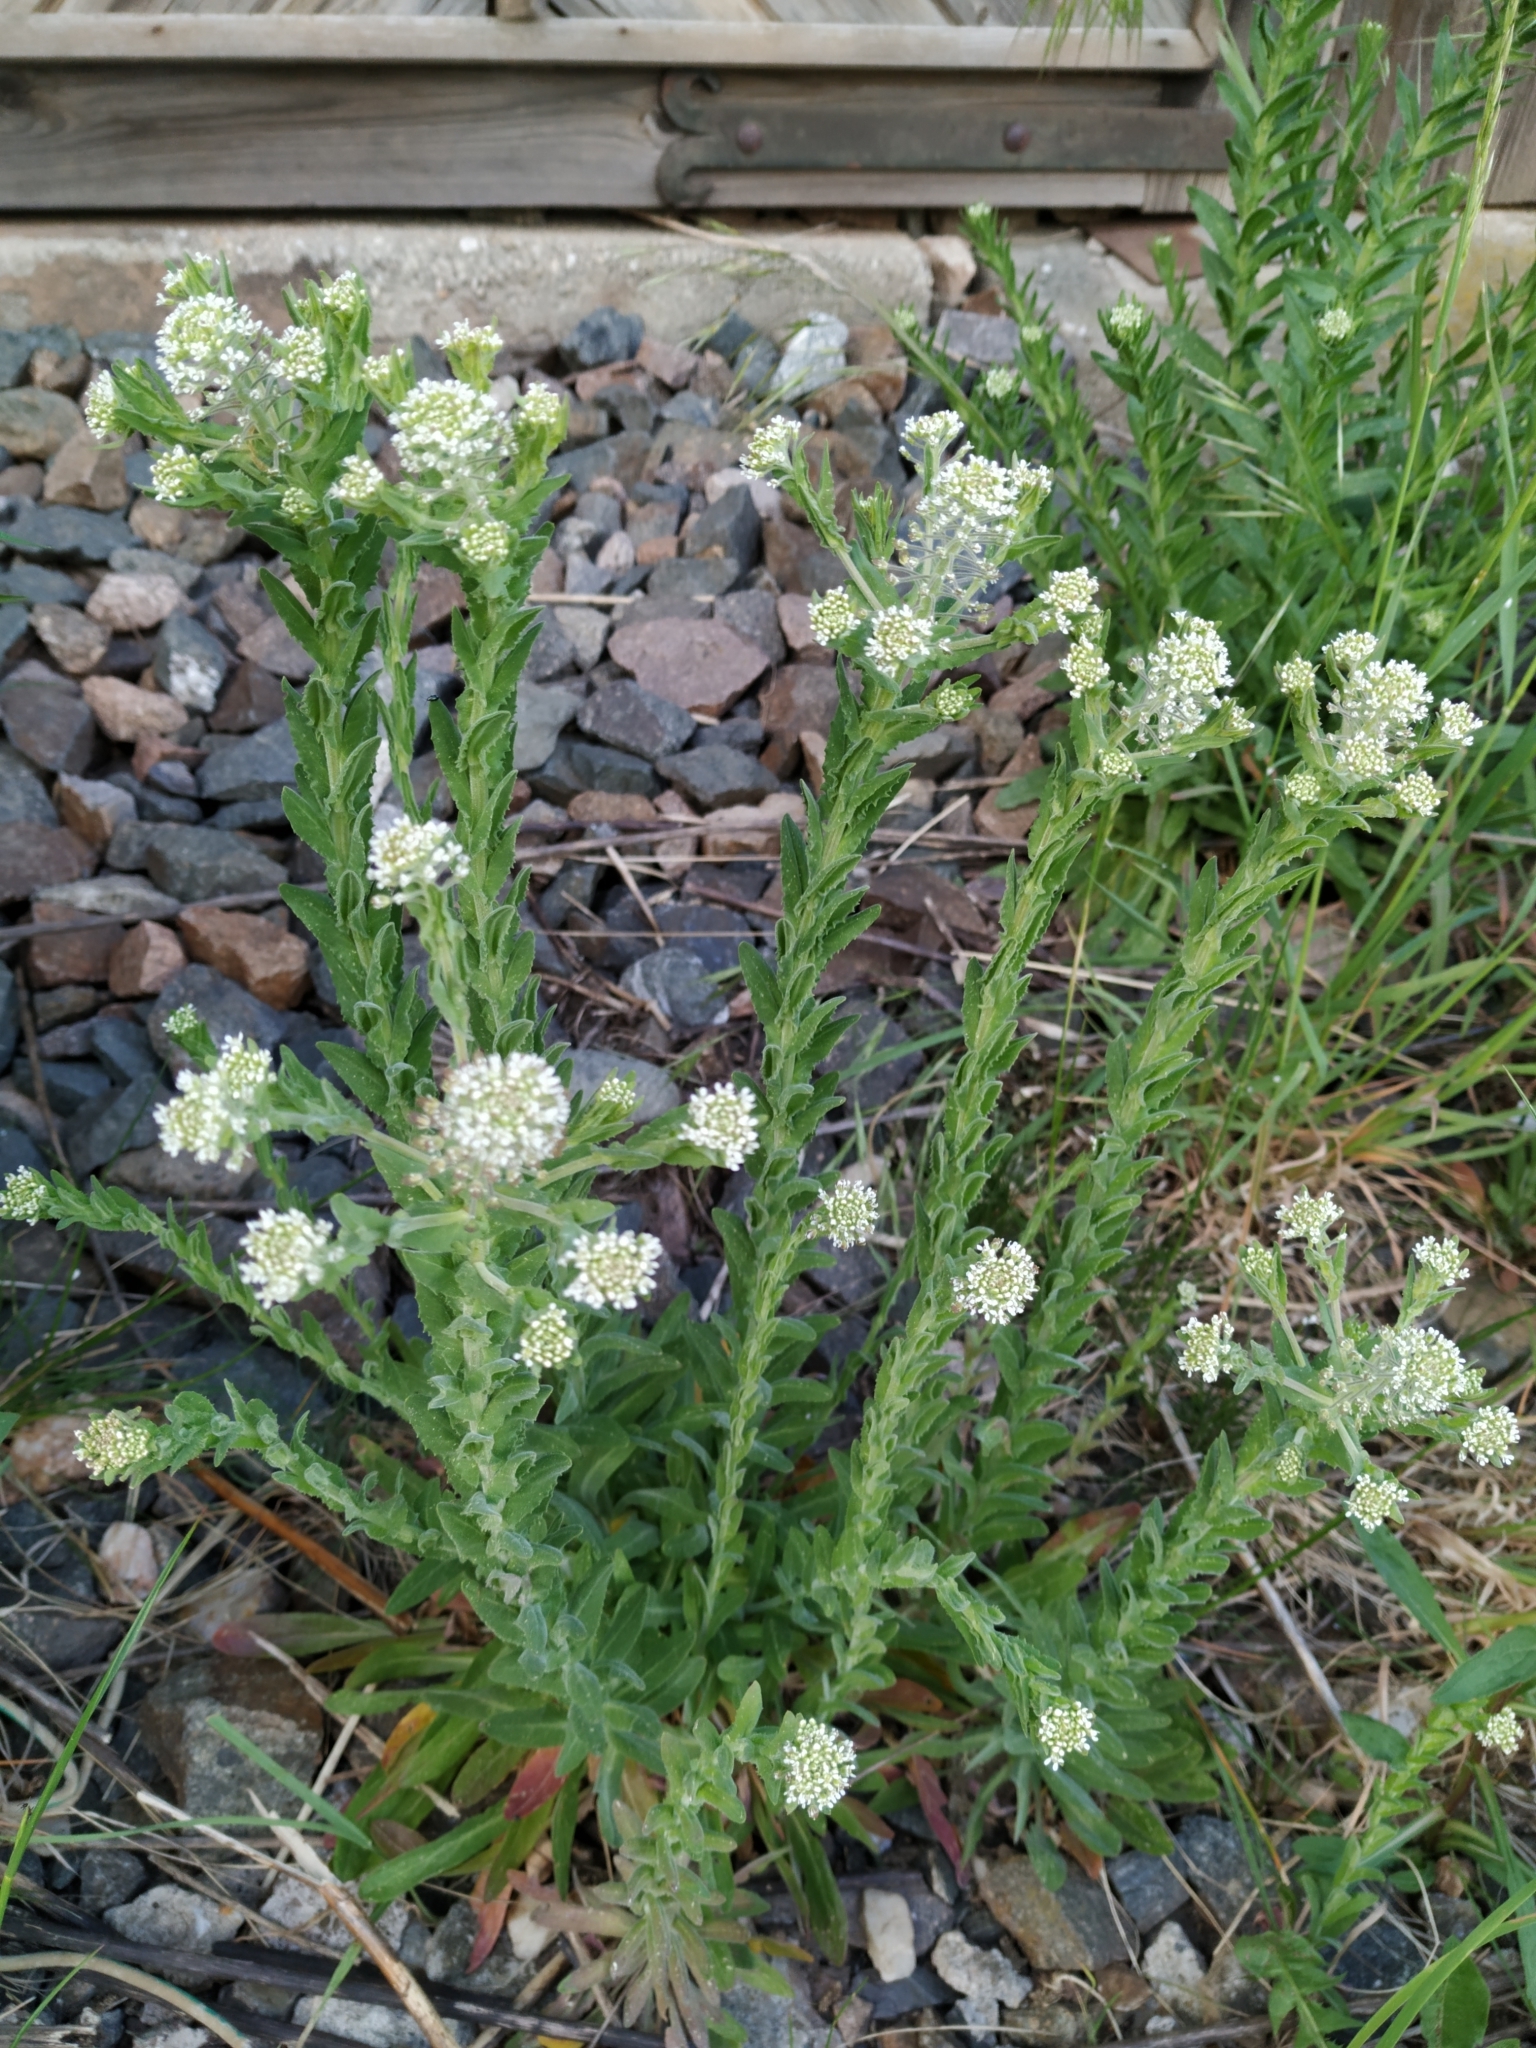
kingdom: Plantae
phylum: Tracheophyta
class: Magnoliopsida
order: Brassicales
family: Brassicaceae
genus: Lepidium
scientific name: Lepidium campestre
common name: Field pepperwort
